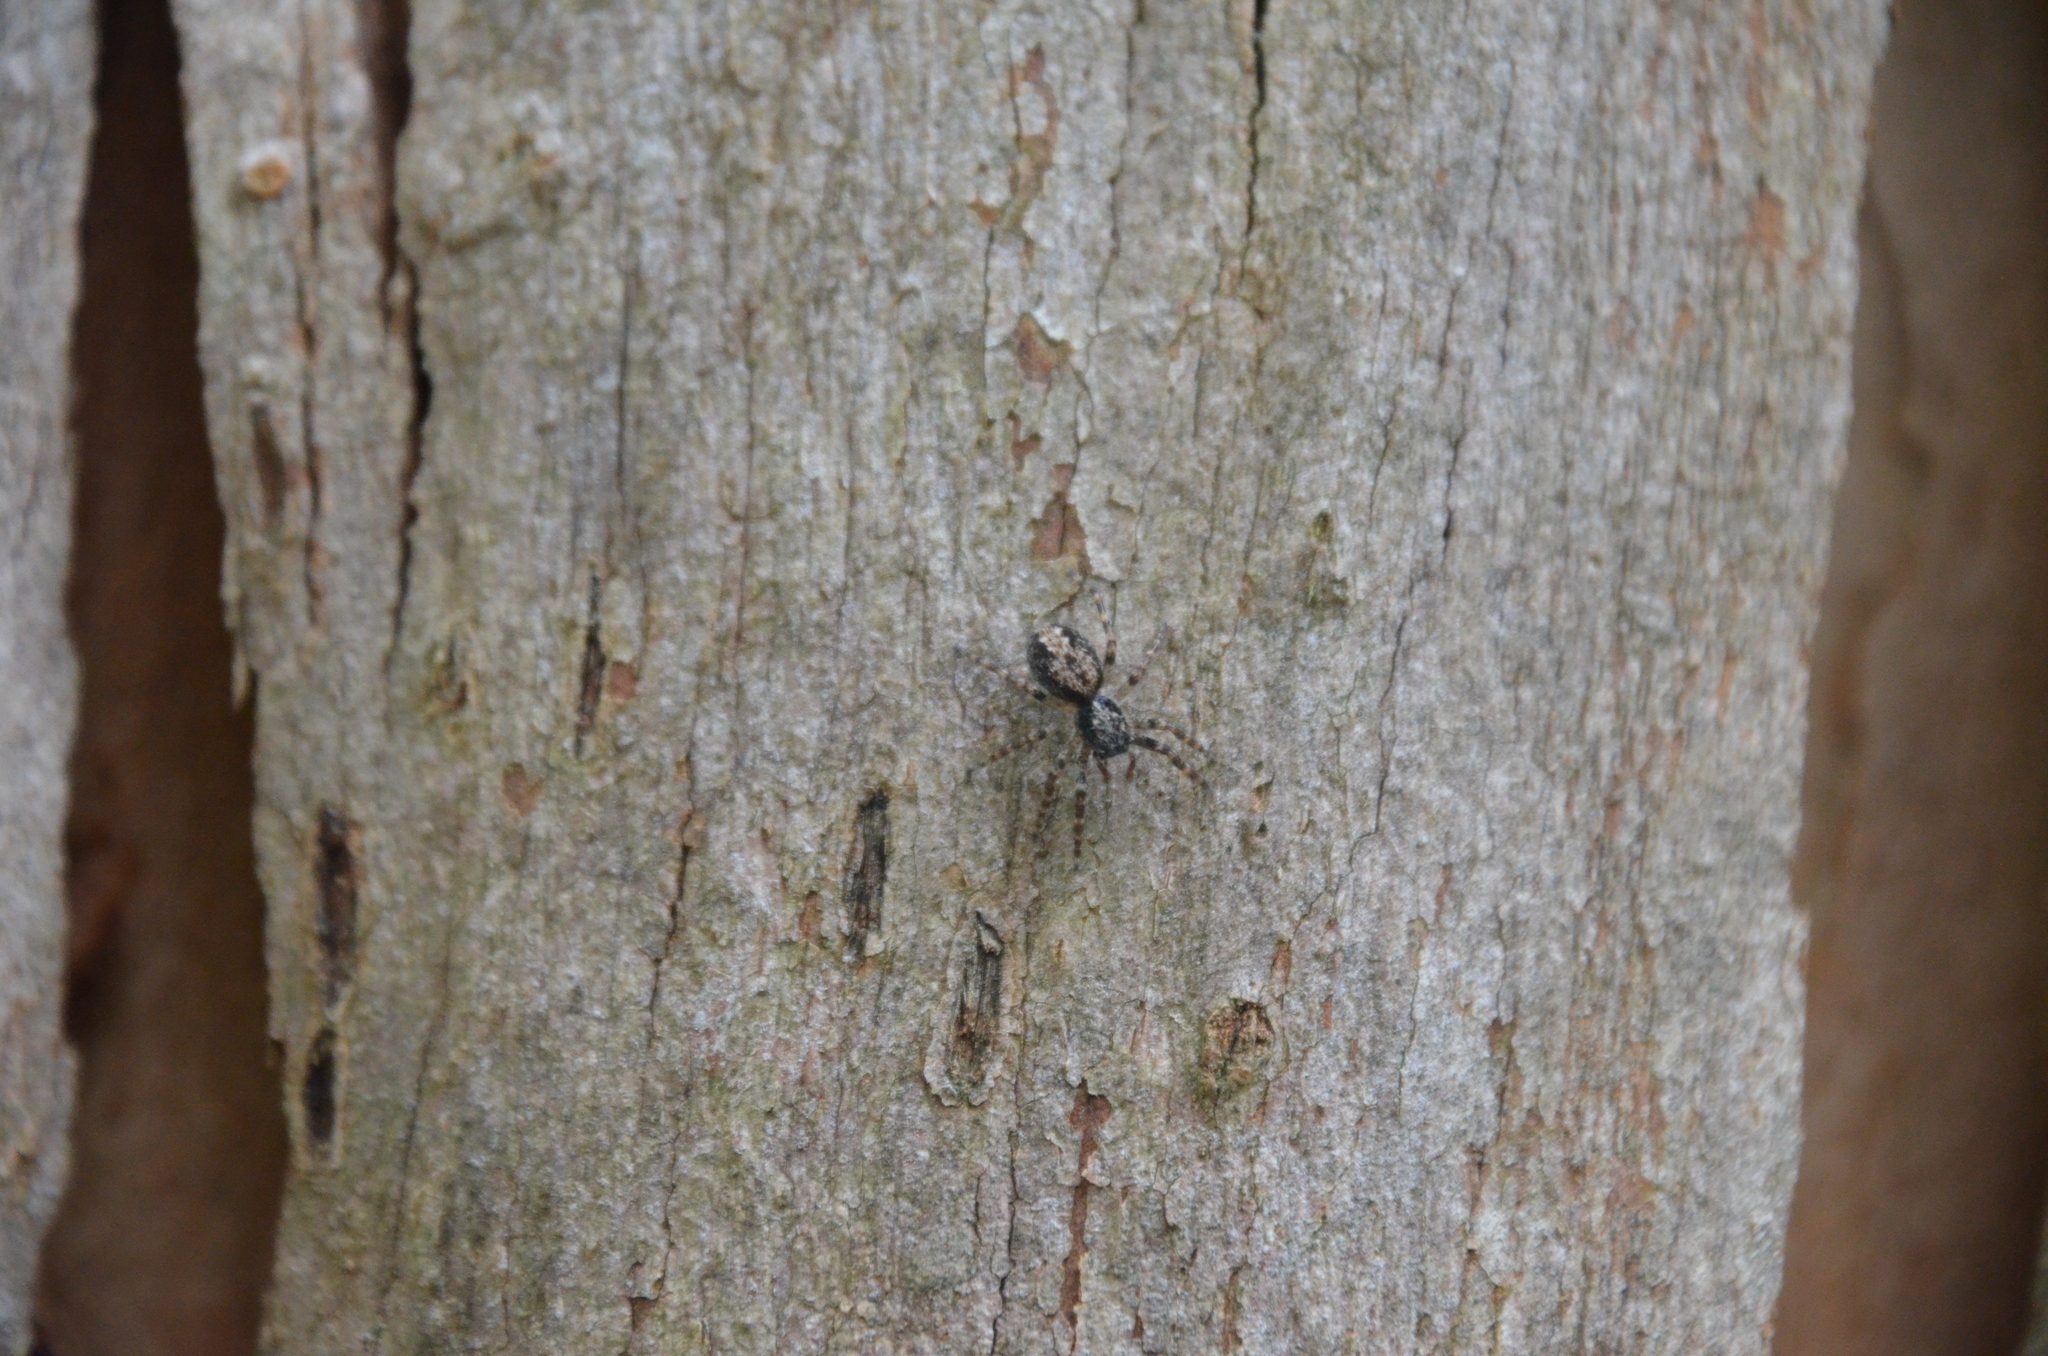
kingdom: Animalia
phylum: Arthropoda
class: Arachnida
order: Araneae
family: Salticidae
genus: Titanattus
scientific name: Titanattus andinus
